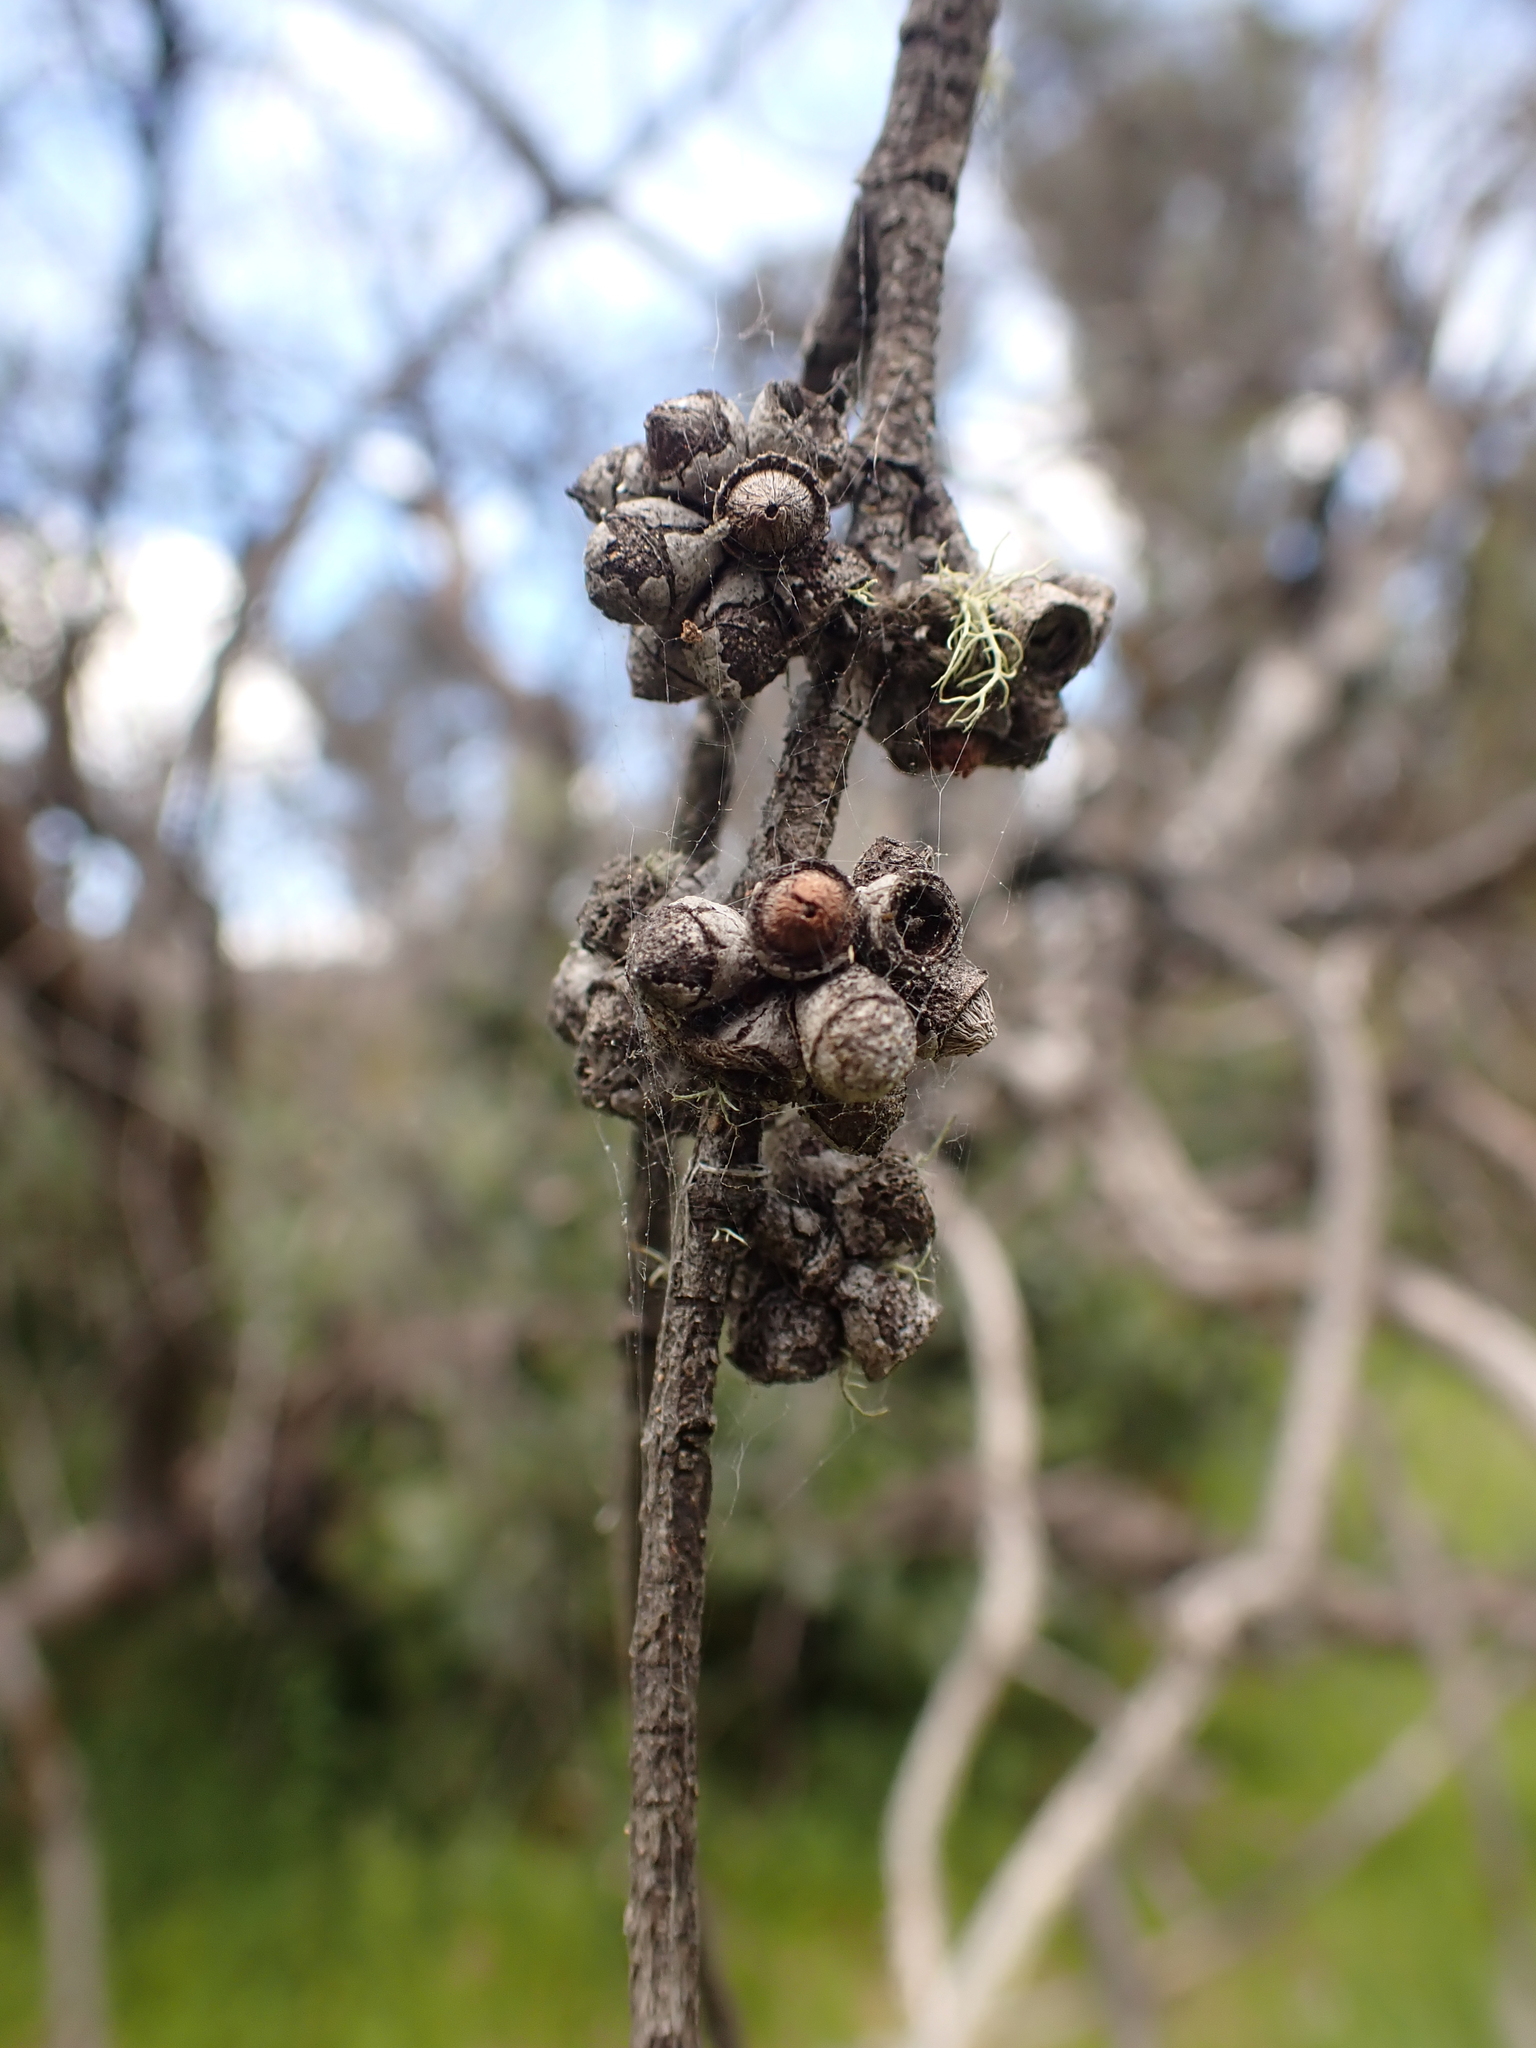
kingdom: Plantae
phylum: Tracheophyta
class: Magnoliopsida
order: Myrtales
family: Myrtaceae
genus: Eucalyptus
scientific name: Eucalyptus neglecta
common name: Omeo gum
